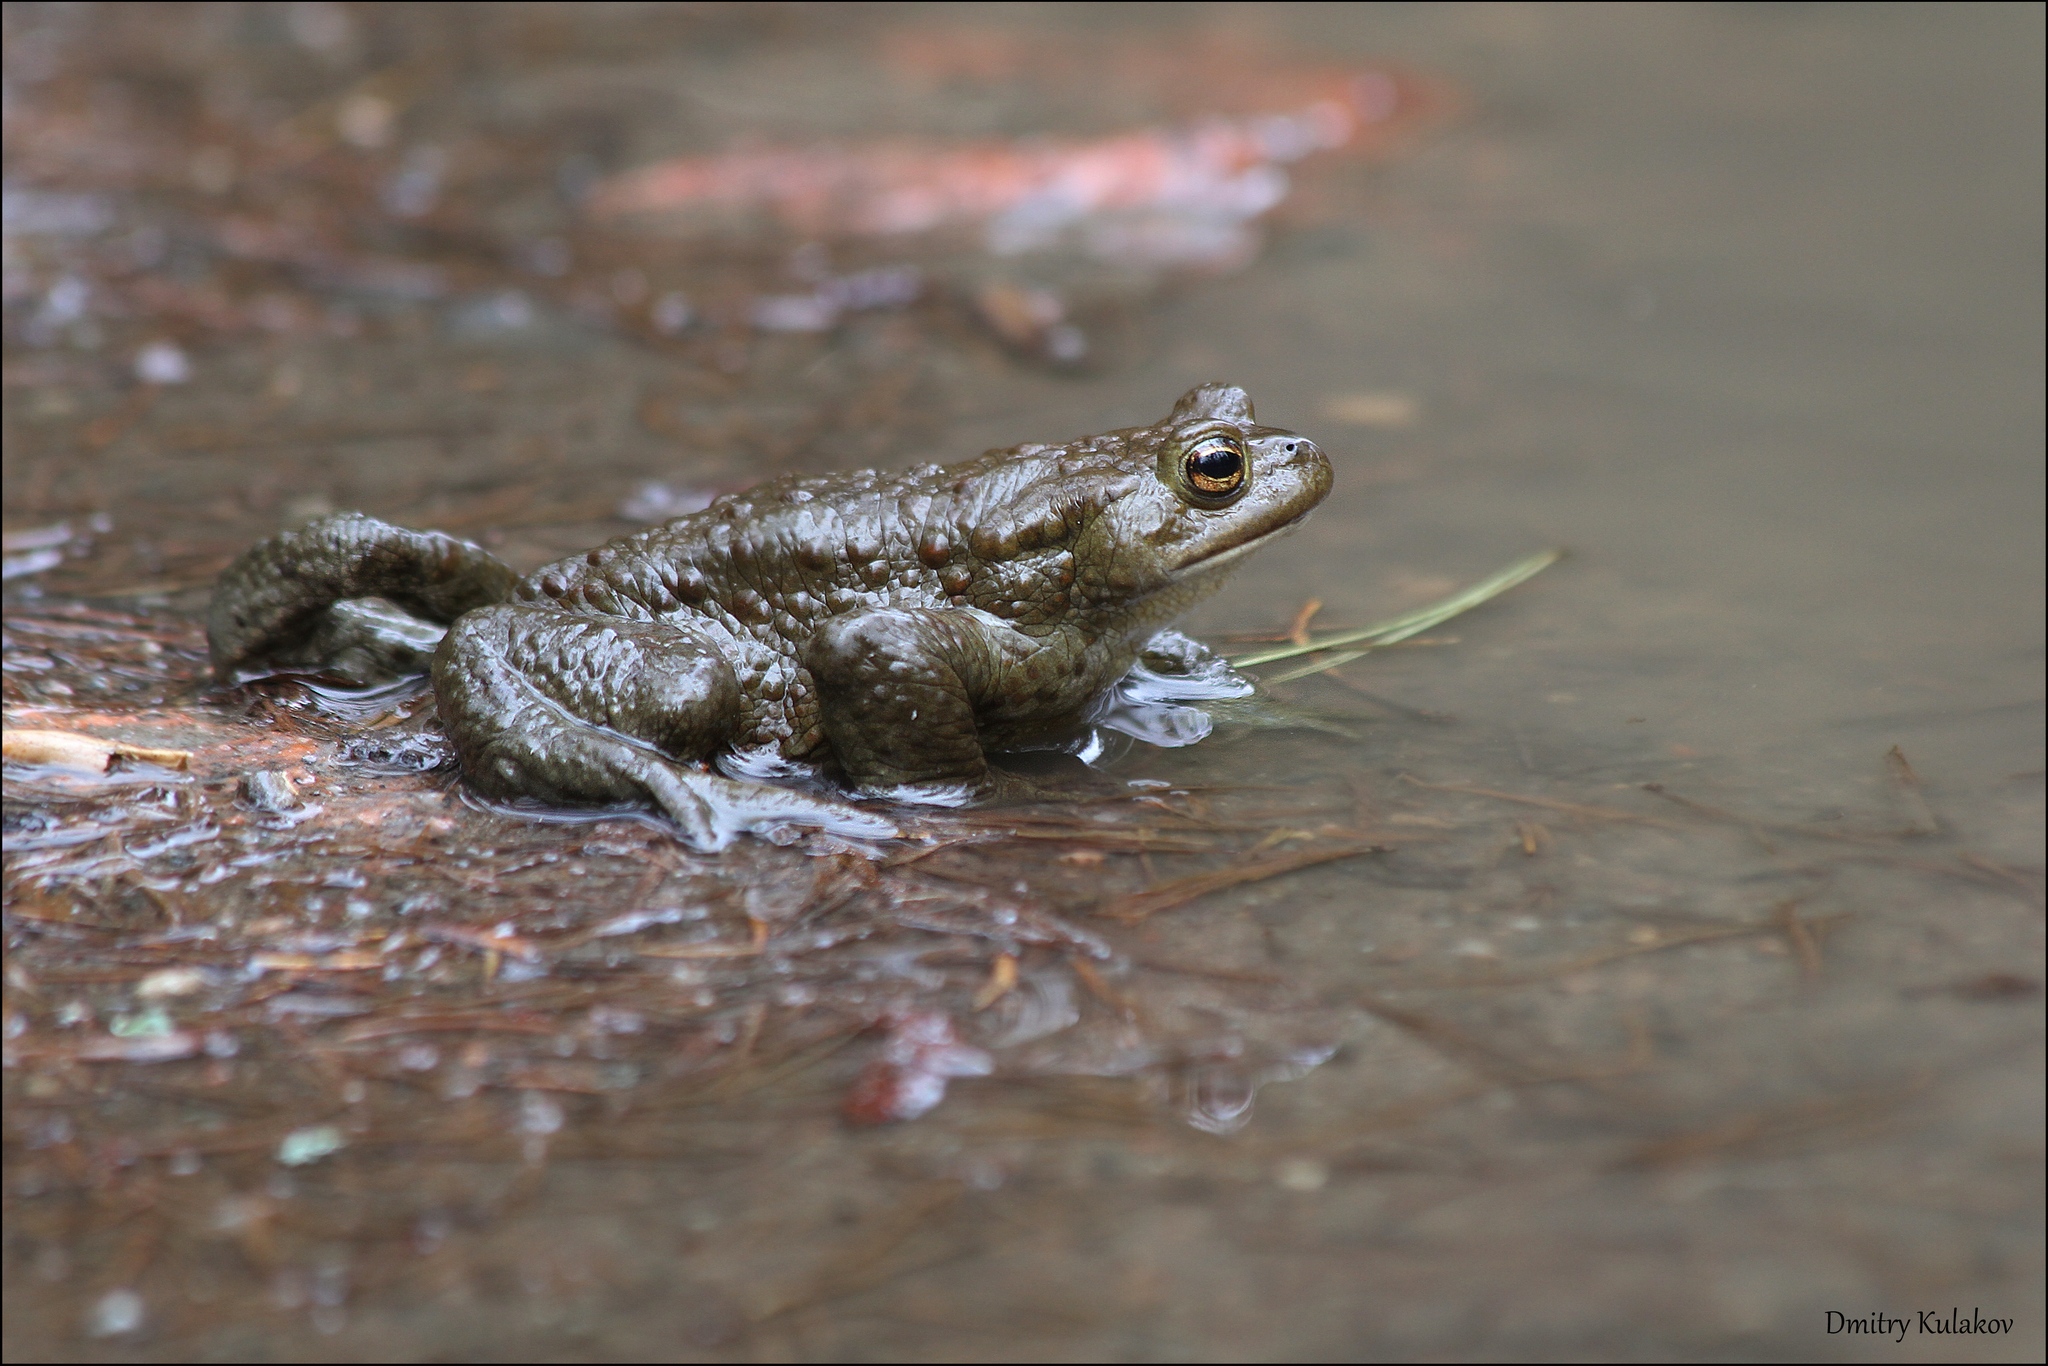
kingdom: Animalia
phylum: Chordata
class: Amphibia
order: Anura
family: Bufonidae
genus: Bufo
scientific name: Bufo bufo
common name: Common toad
